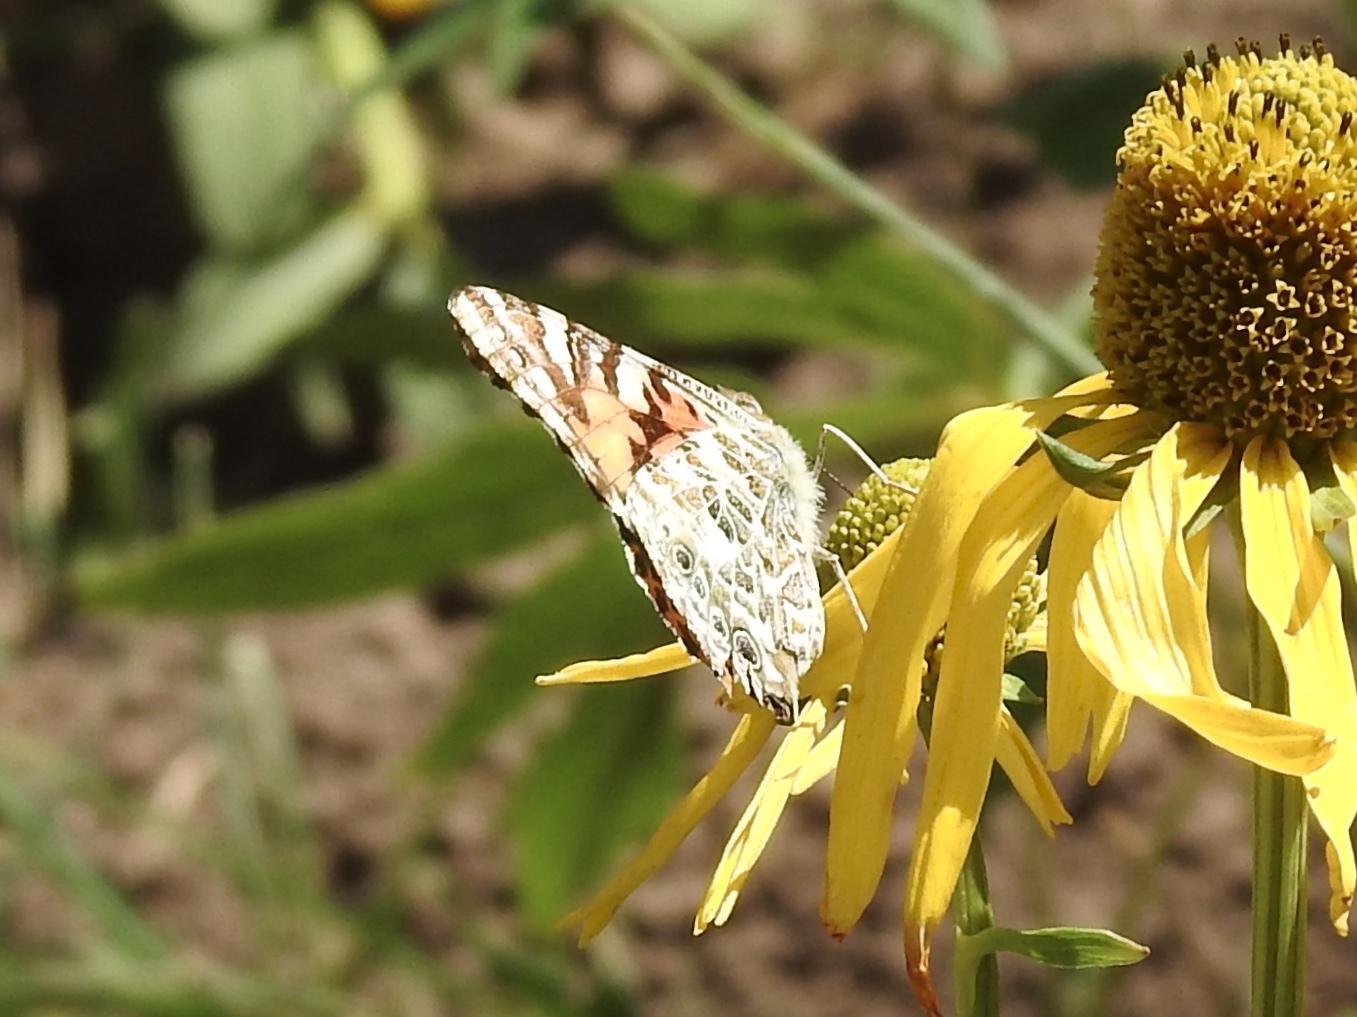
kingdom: Animalia
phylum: Arthropoda
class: Insecta
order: Lepidoptera
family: Nymphalidae
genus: Vanessa
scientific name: Vanessa cardui
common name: Painted lady
